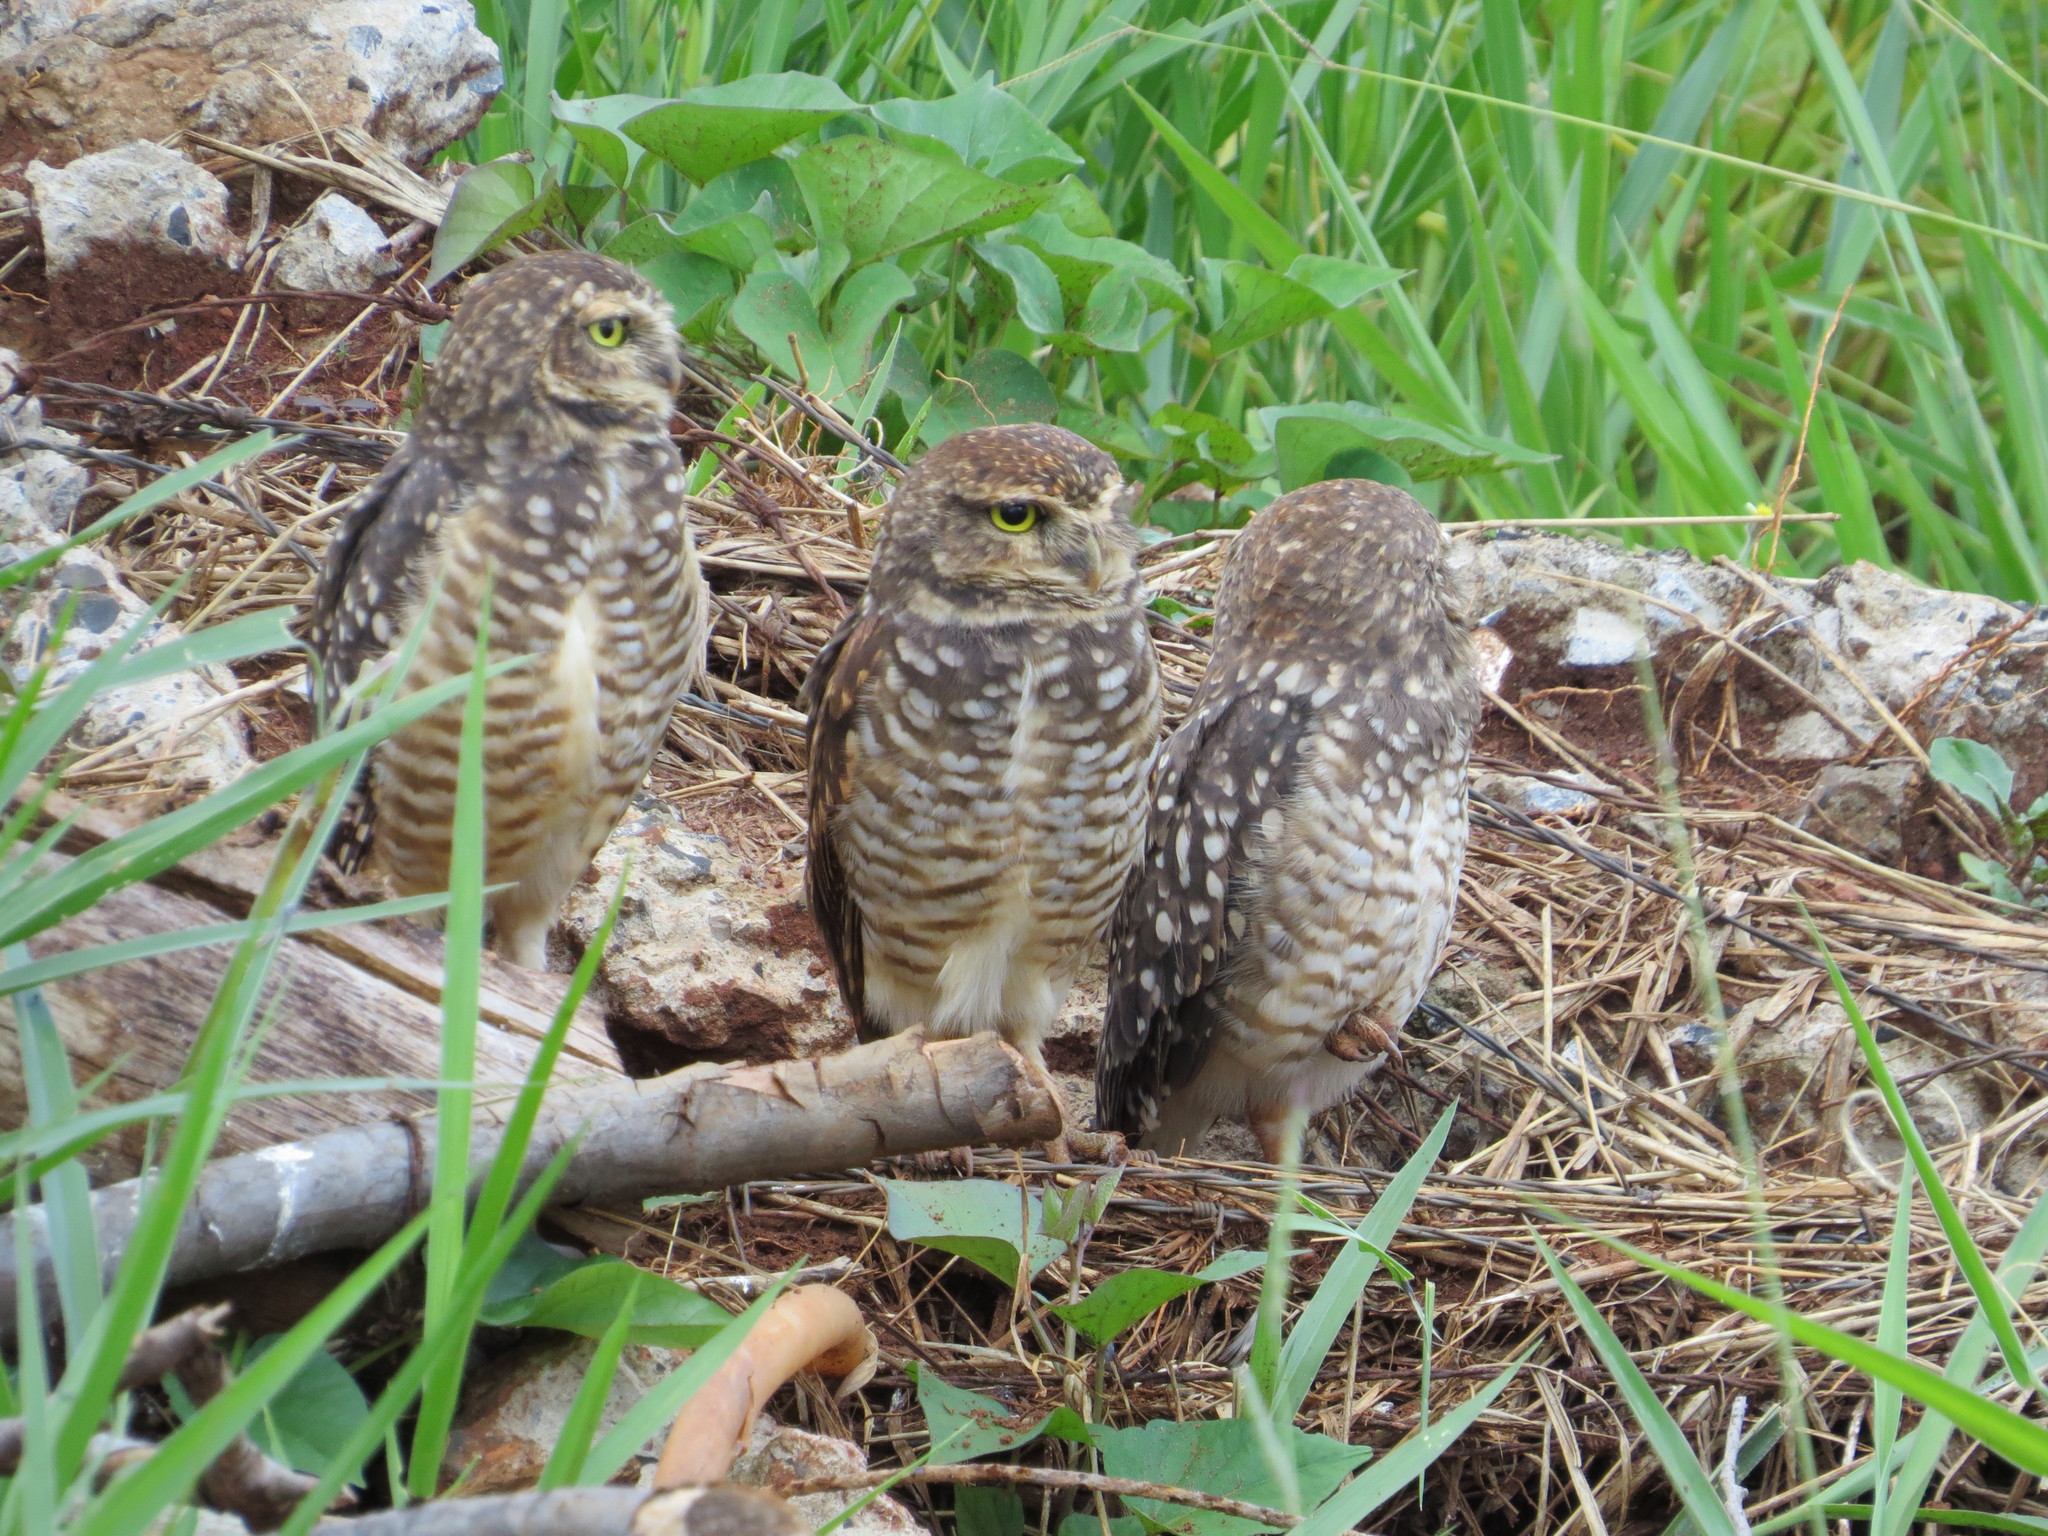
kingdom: Animalia
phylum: Chordata
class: Aves
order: Strigiformes
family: Strigidae
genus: Athene
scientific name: Athene cunicularia
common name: Burrowing owl
